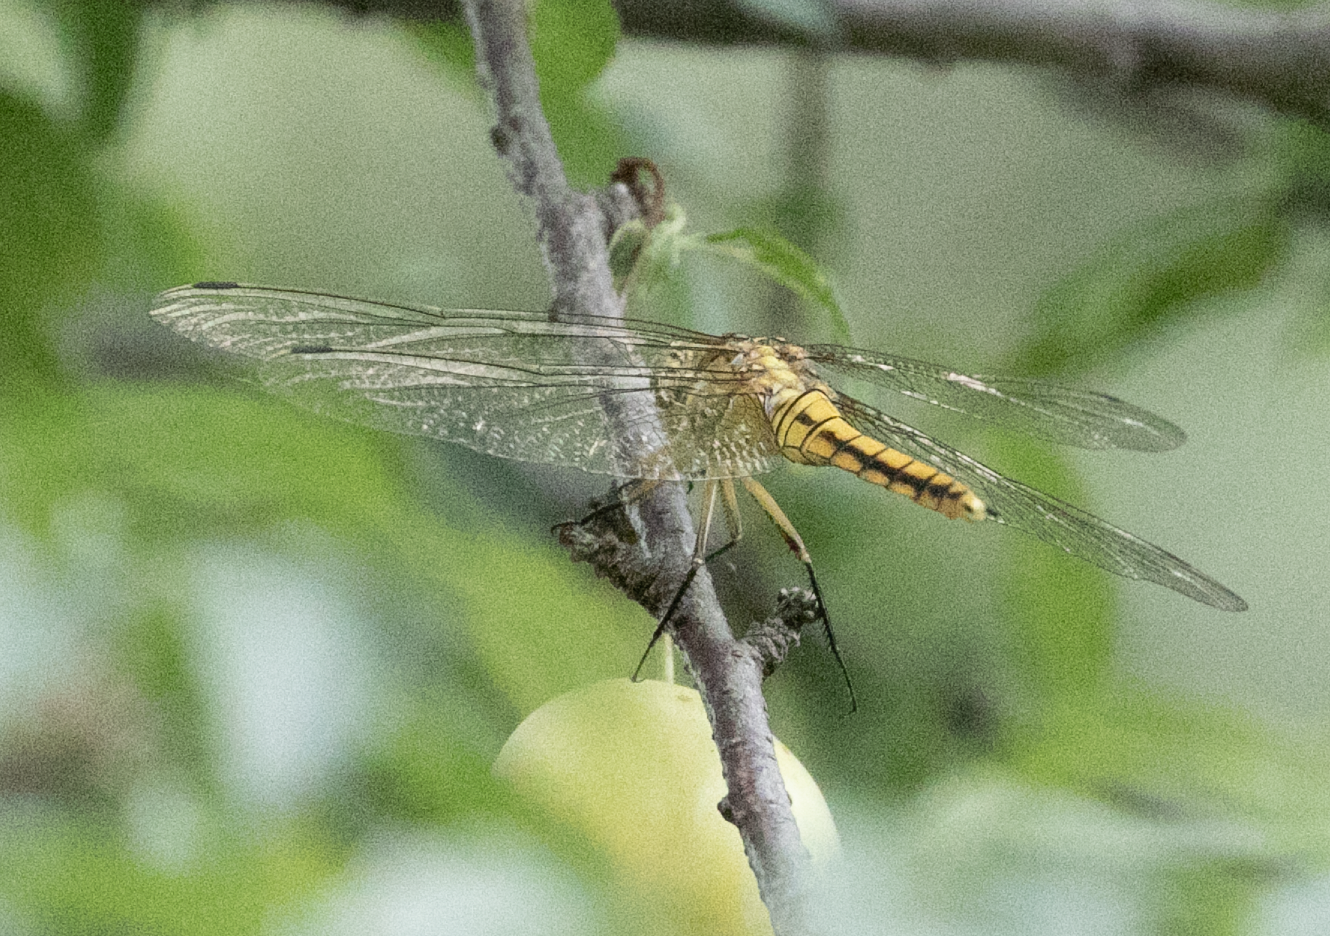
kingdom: Animalia
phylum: Arthropoda
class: Insecta
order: Odonata
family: Libellulidae
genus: Orthetrum
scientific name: Orthetrum cancellatum
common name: Black-tailed skimmer
